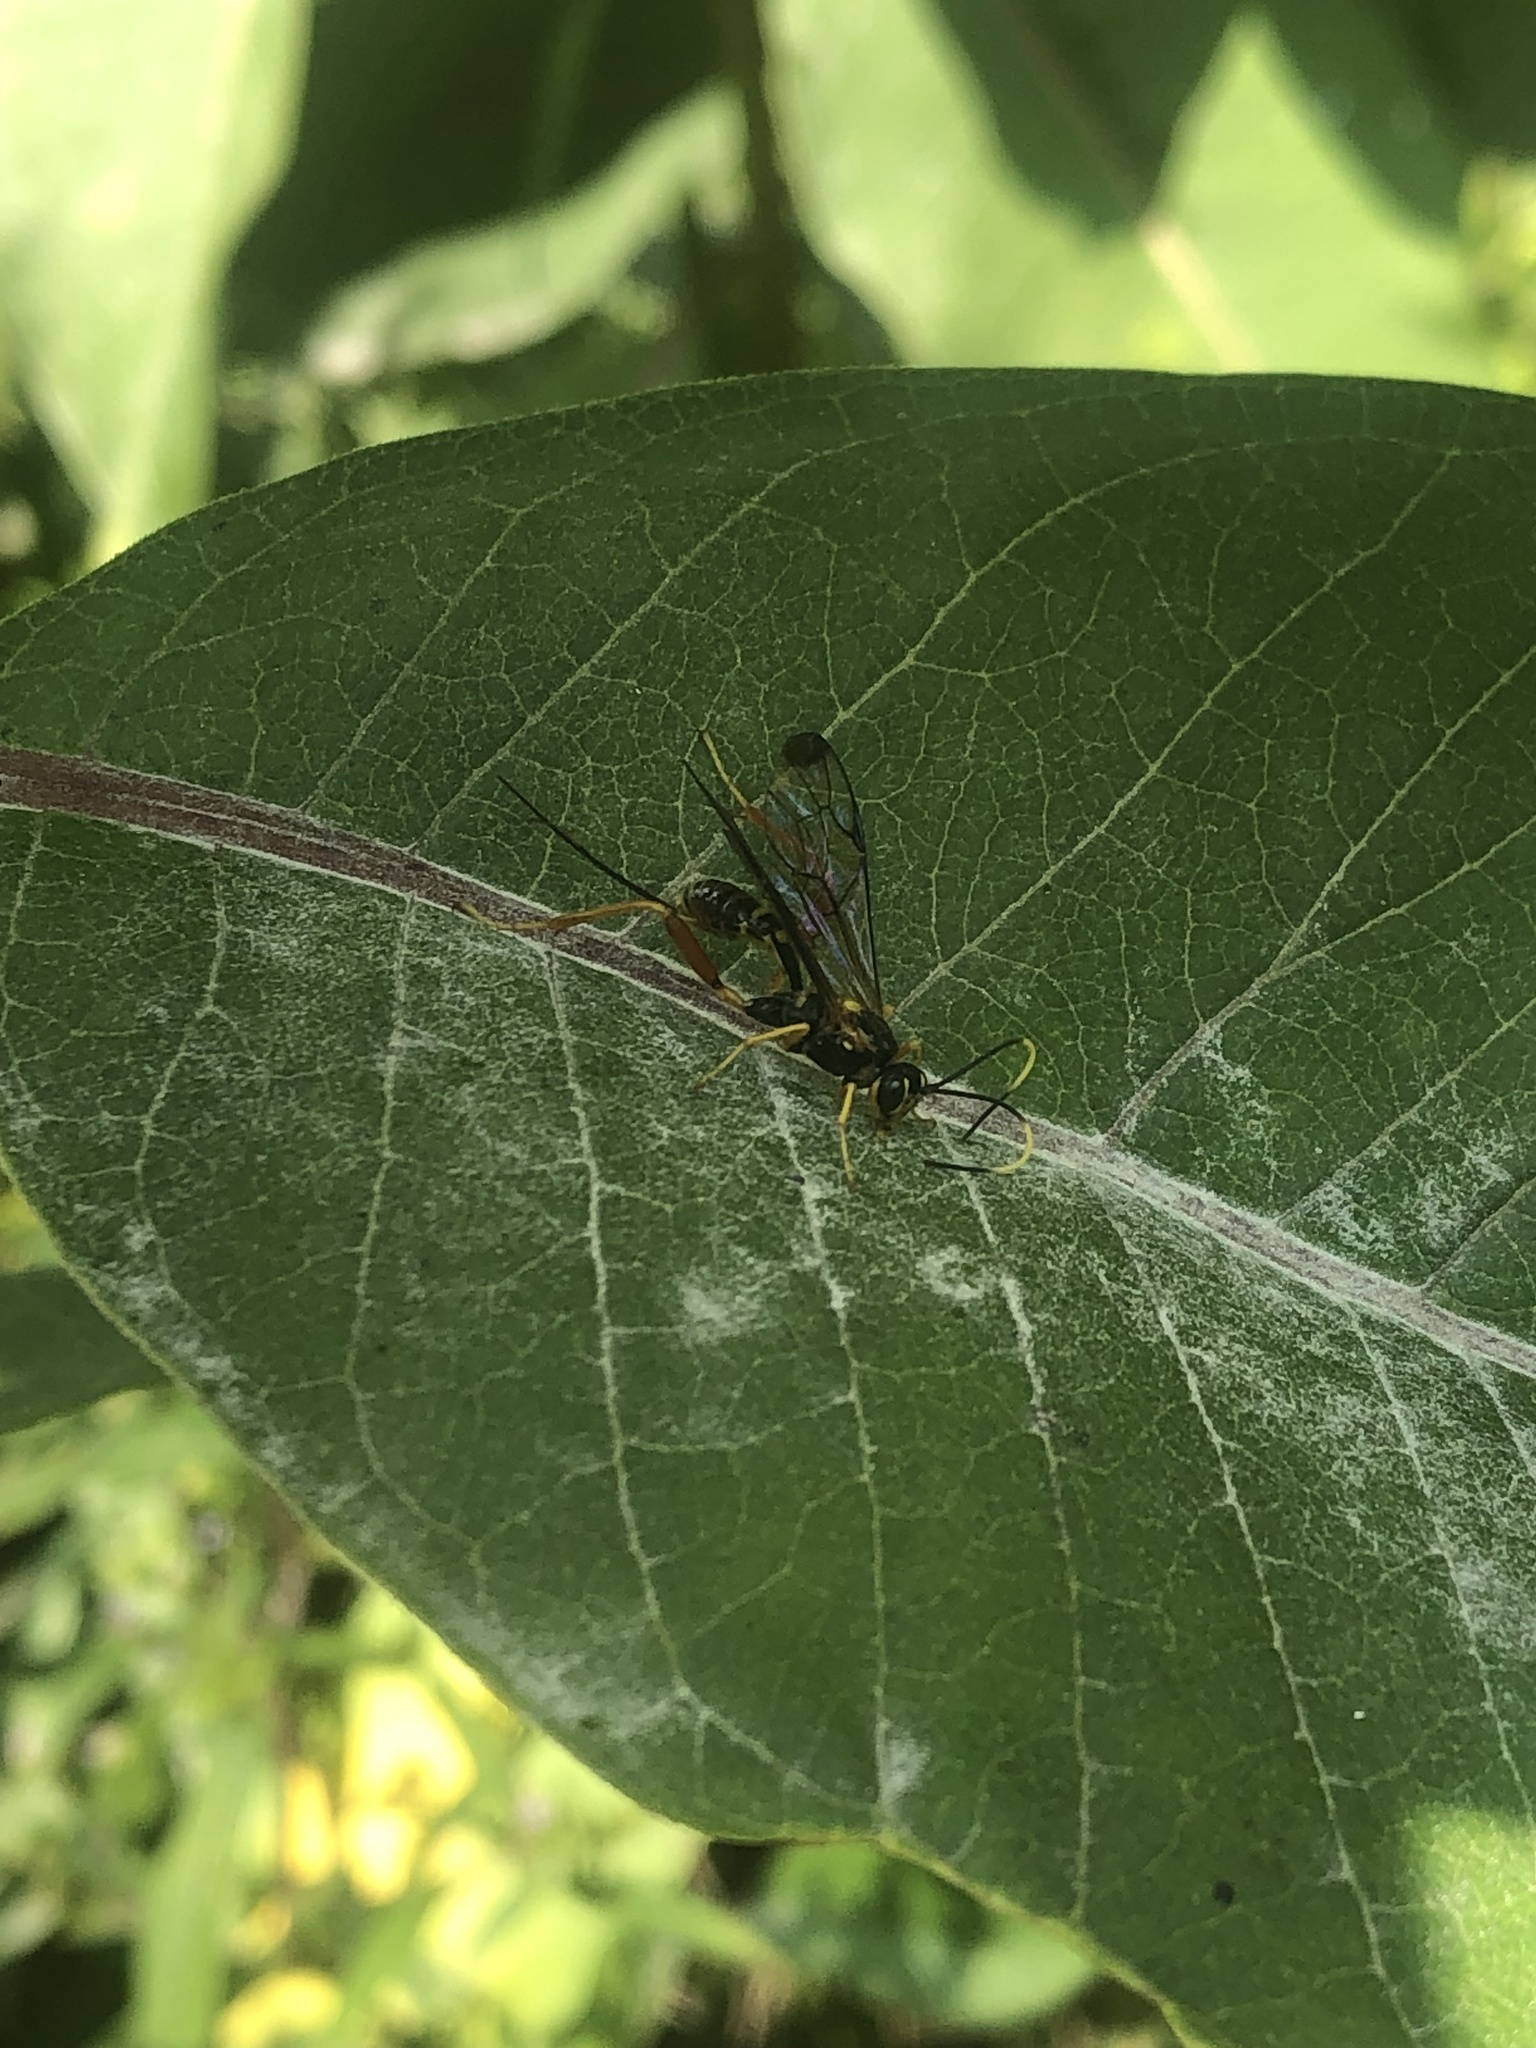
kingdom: Animalia
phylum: Arthropoda
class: Insecta
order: Hymenoptera
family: Ichneumonidae
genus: Spilopteron
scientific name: Spilopteron occiputale
